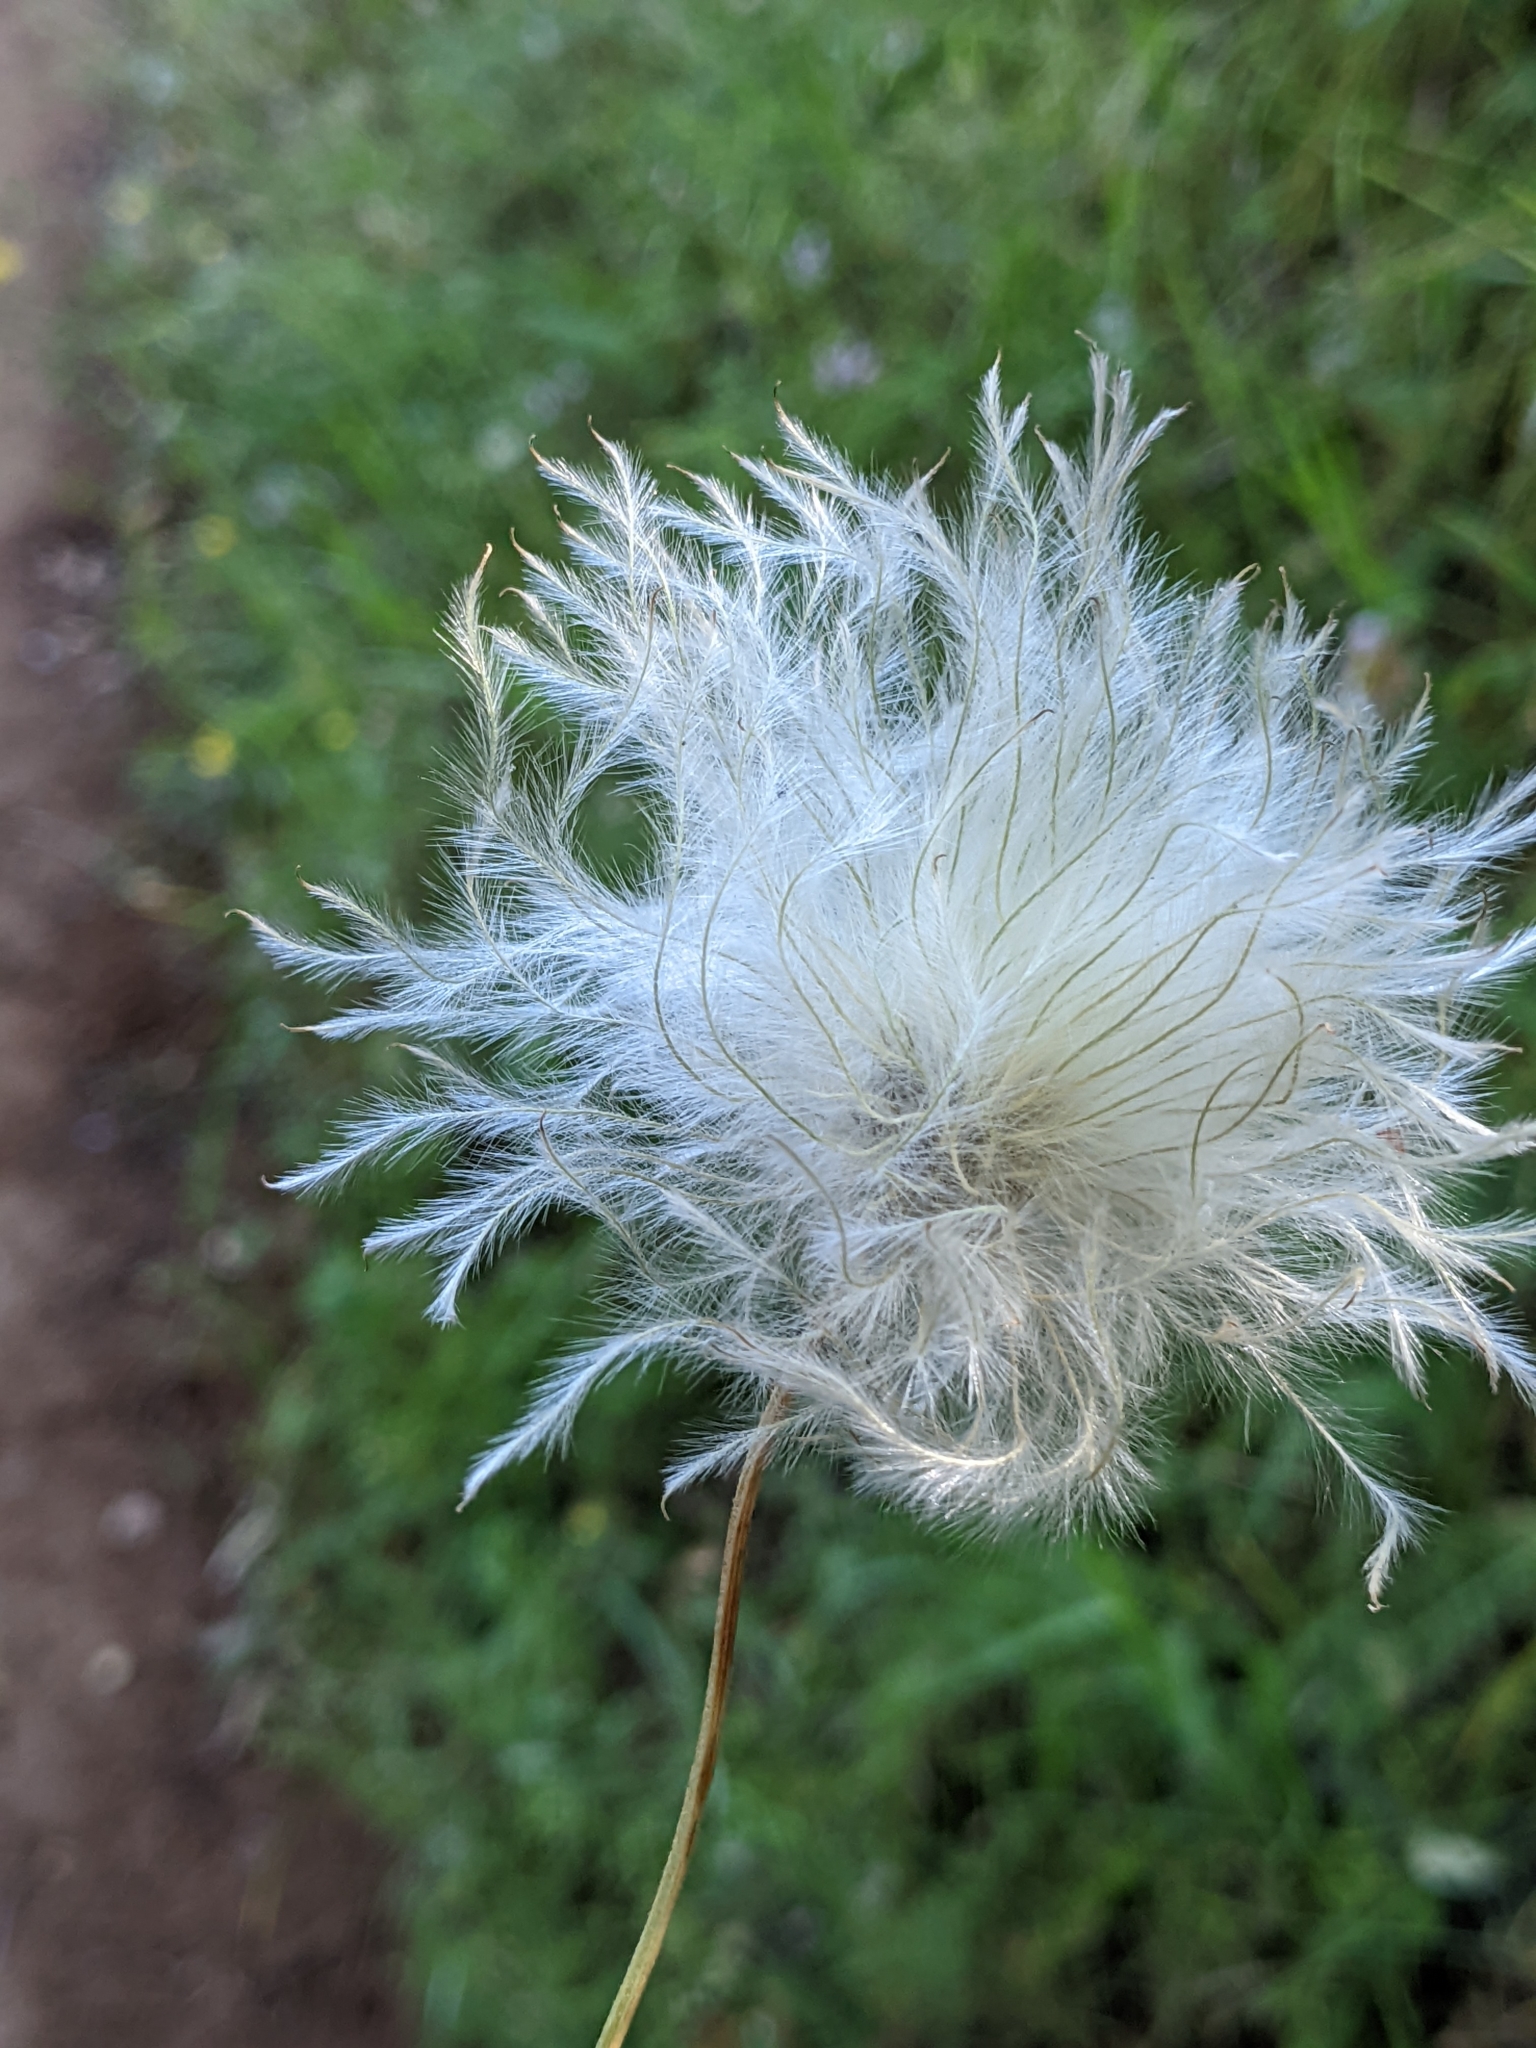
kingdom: Plantae
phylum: Tracheophyta
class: Magnoliopsida
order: Ranunculales
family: Ranunculaceae
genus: Clematis
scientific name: Clematis lasiantha
